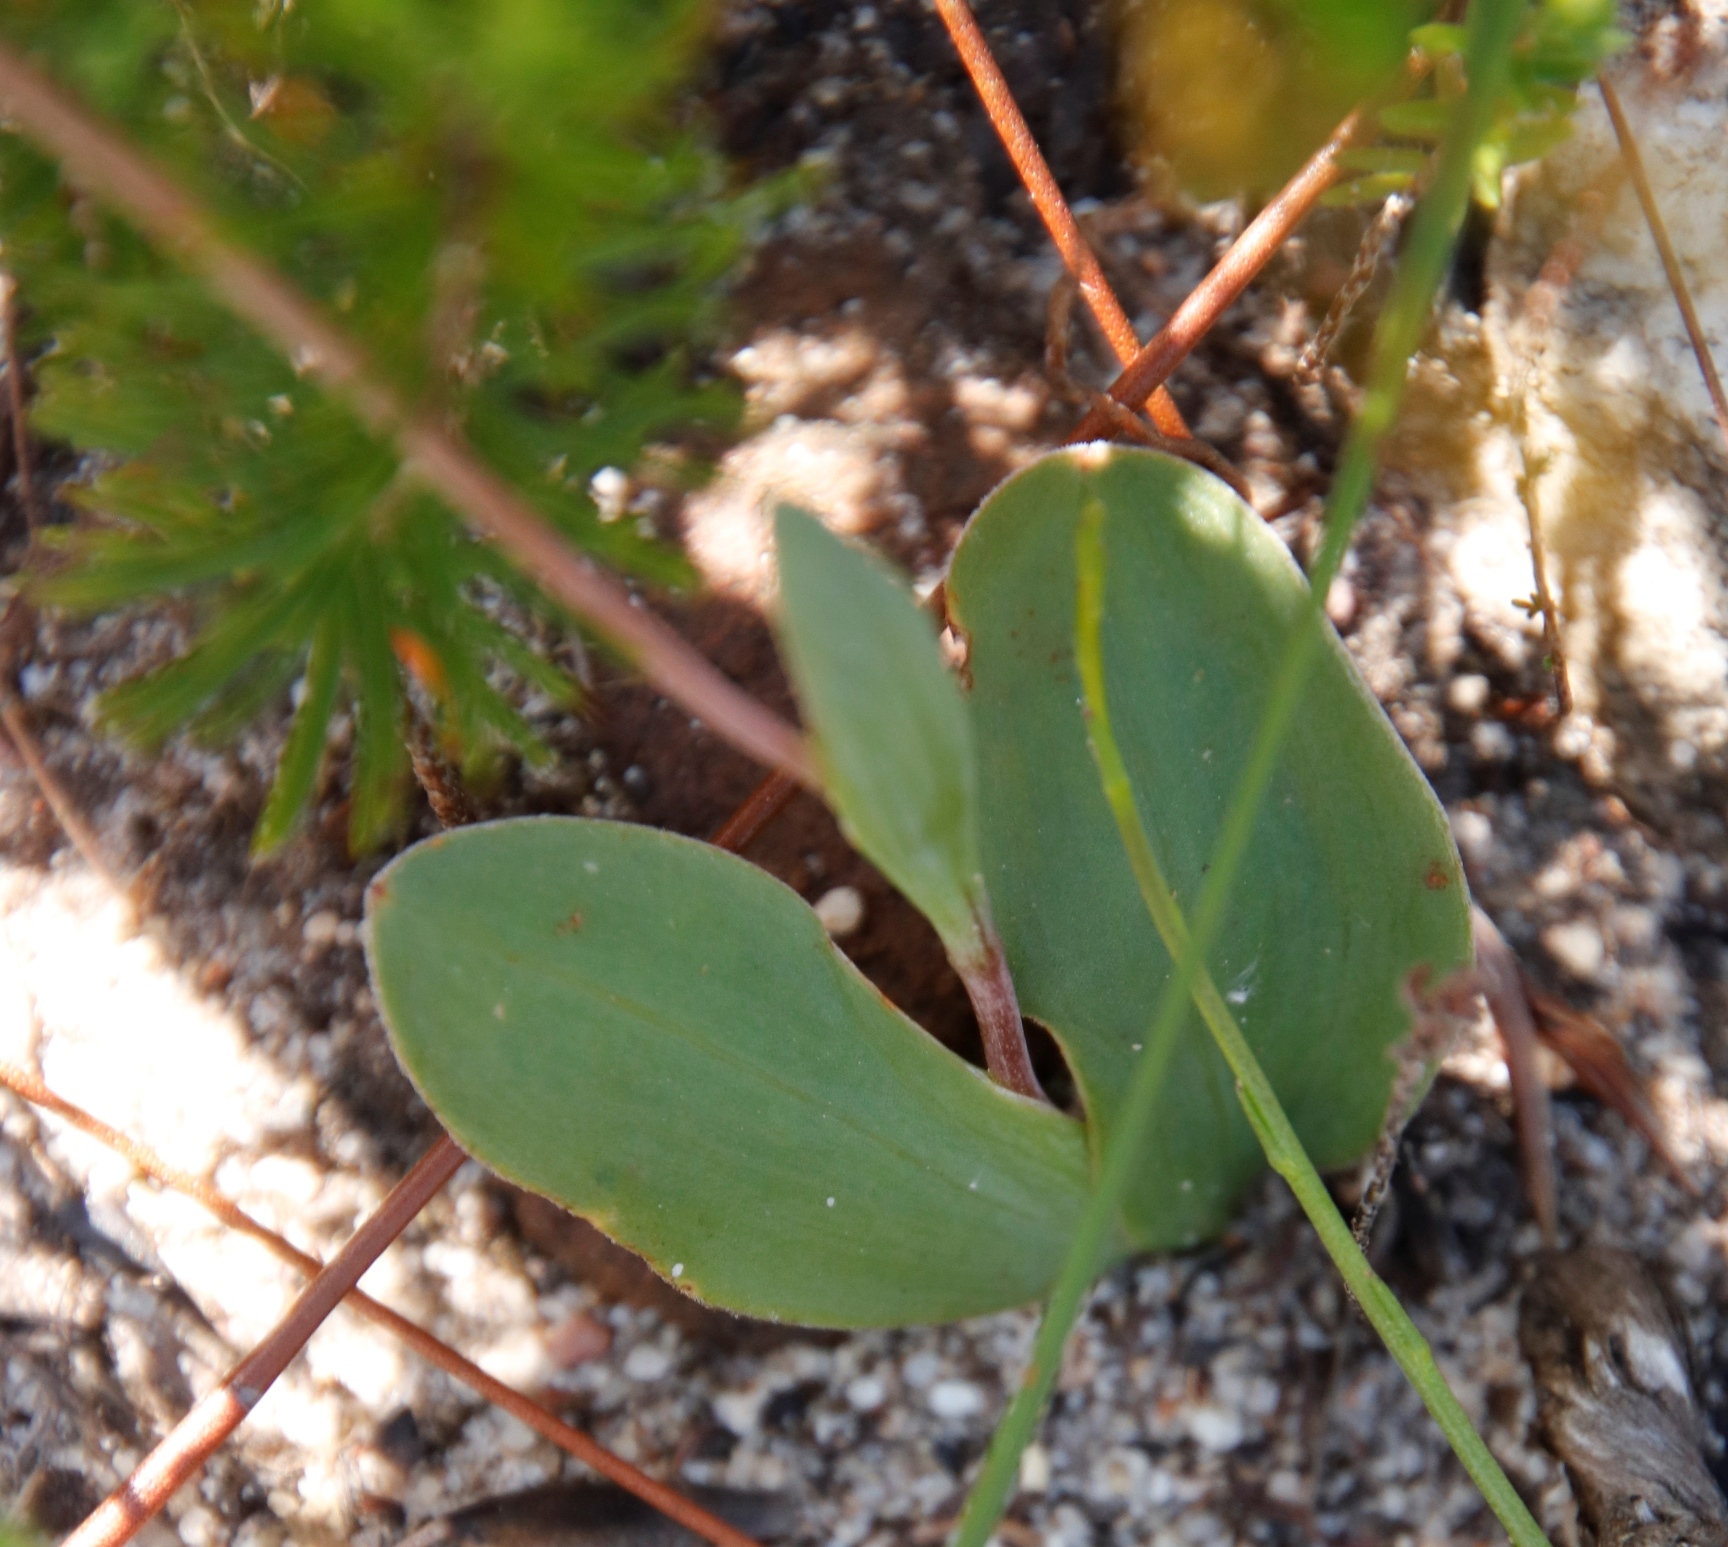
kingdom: Plantae
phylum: Tracheophyta
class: Liliopsida
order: Asparagales
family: Iridaceae
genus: Geissorhiza
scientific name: Geissorhiza ovata
